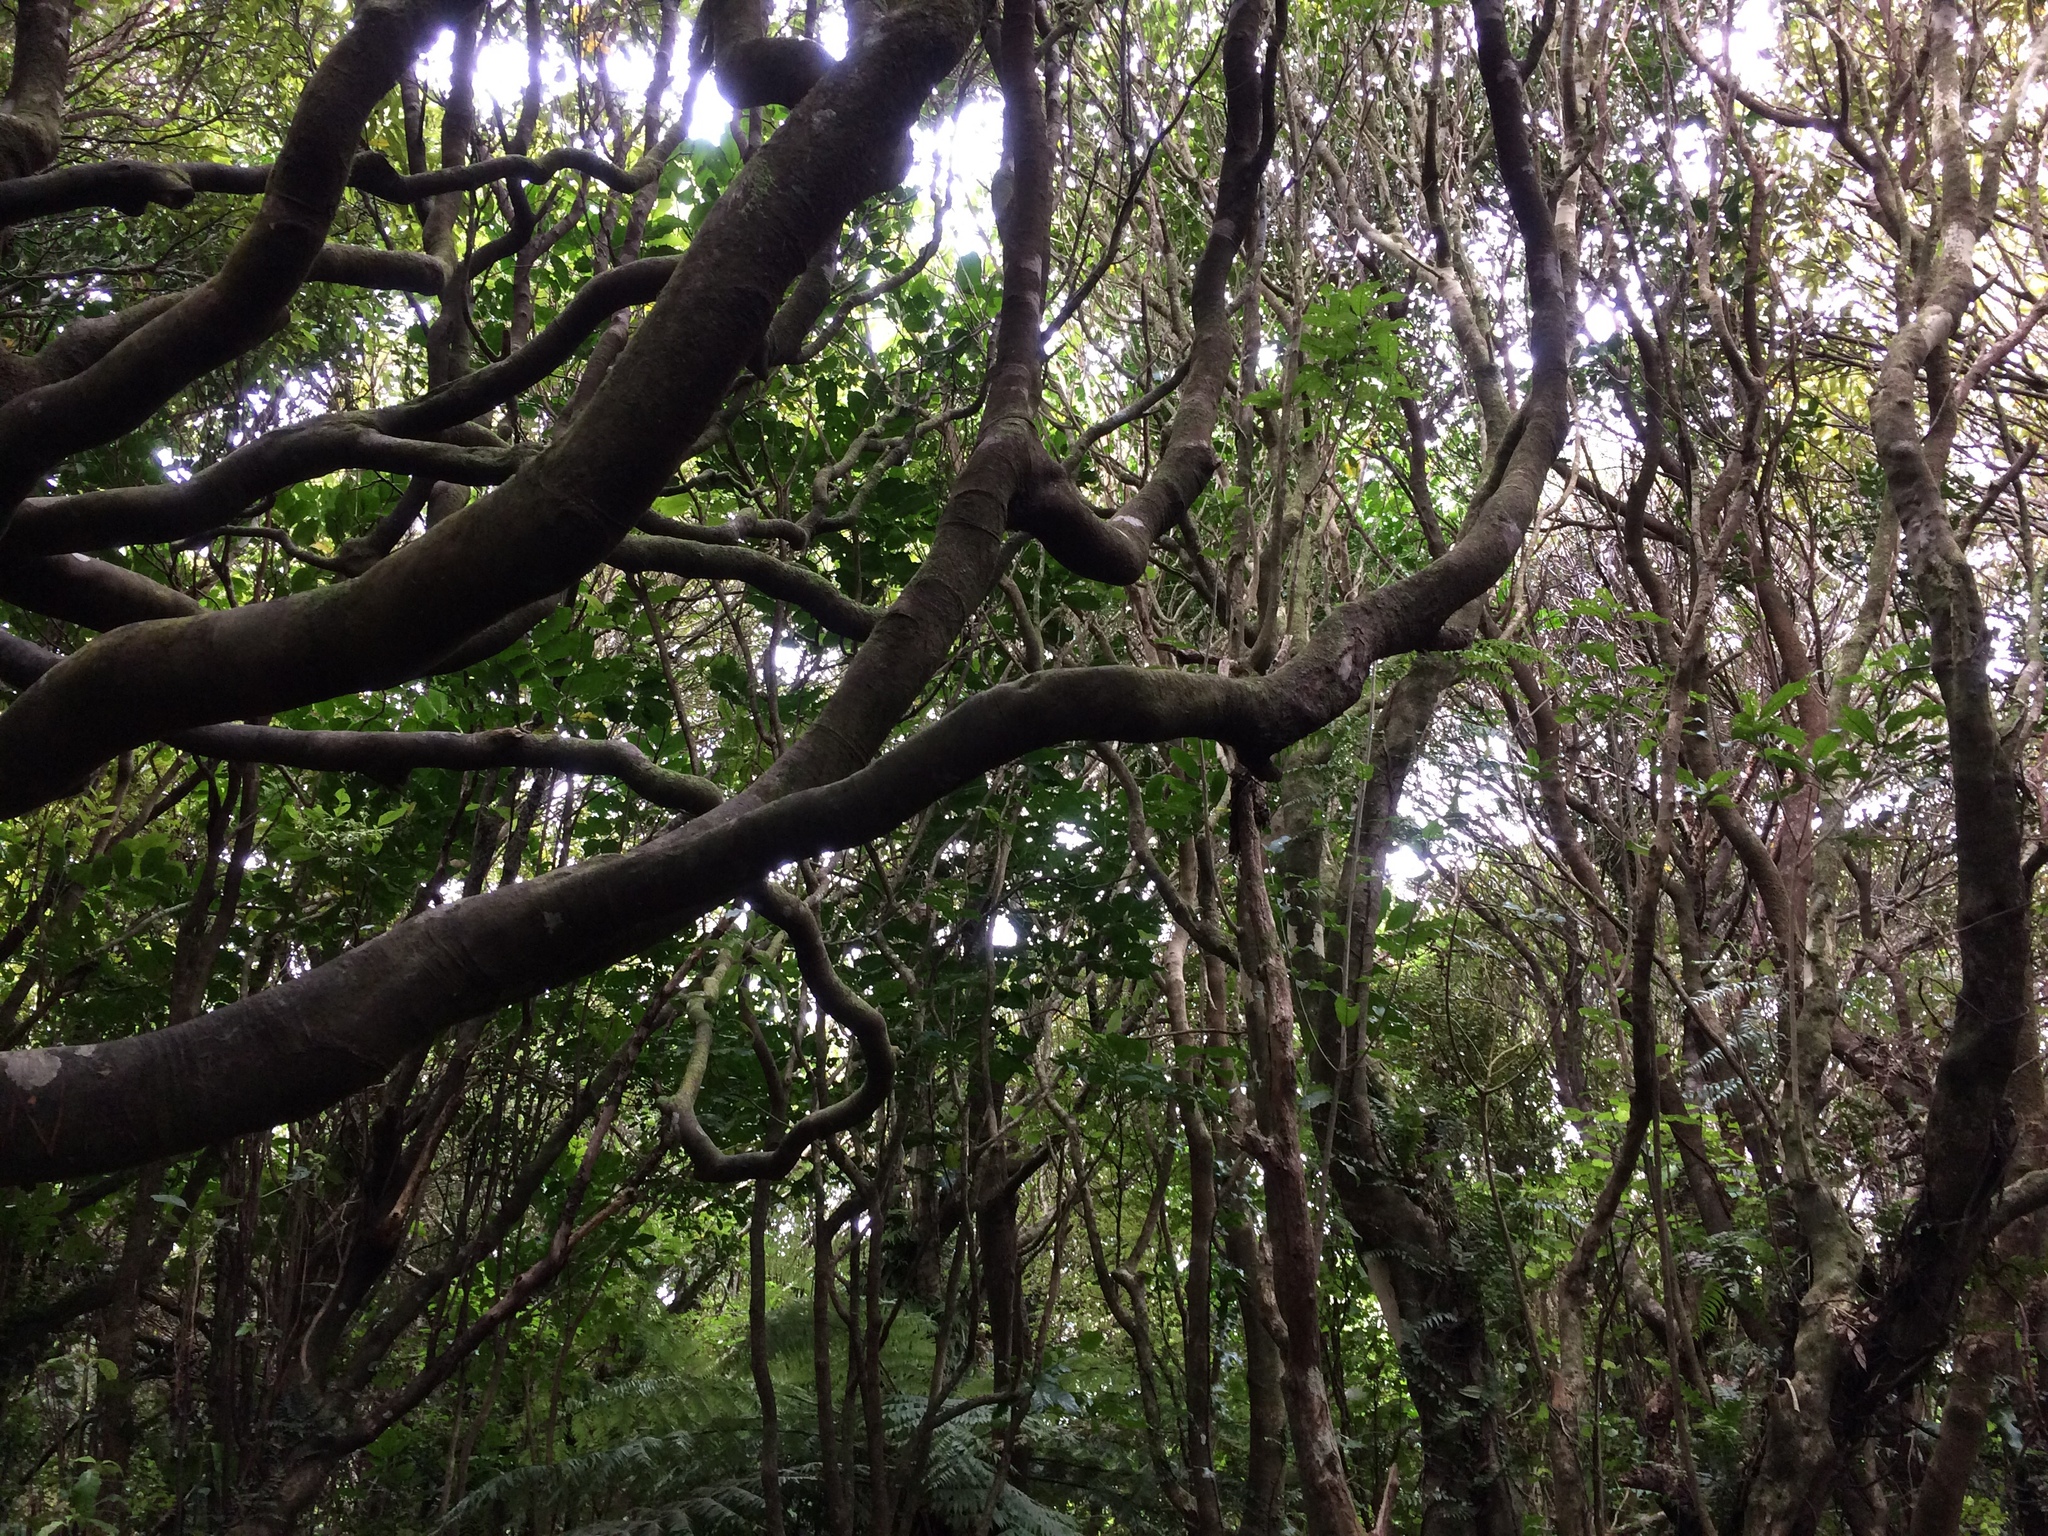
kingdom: Plantae
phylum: Tracheophyta
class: Magnoliopsida
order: Laurales
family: Lauraceae
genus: Beilschmiedia
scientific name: Beilschmiedia tawa
